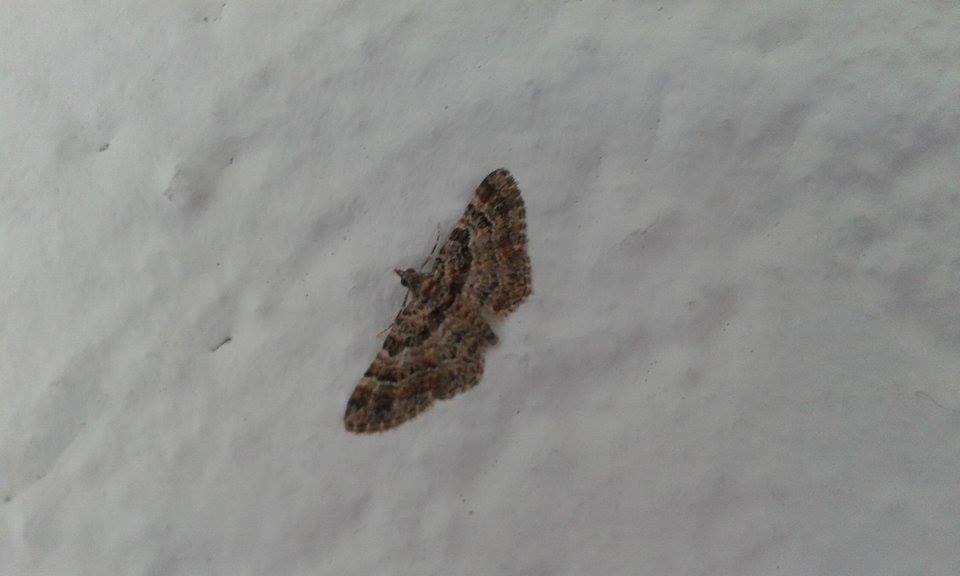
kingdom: Animalia
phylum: Arthropoda
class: Insecta
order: Lepidoptera
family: Geometridae
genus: Gymnoscelis
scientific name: Gymnoscelis rufifasciata
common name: Double-striped pug
